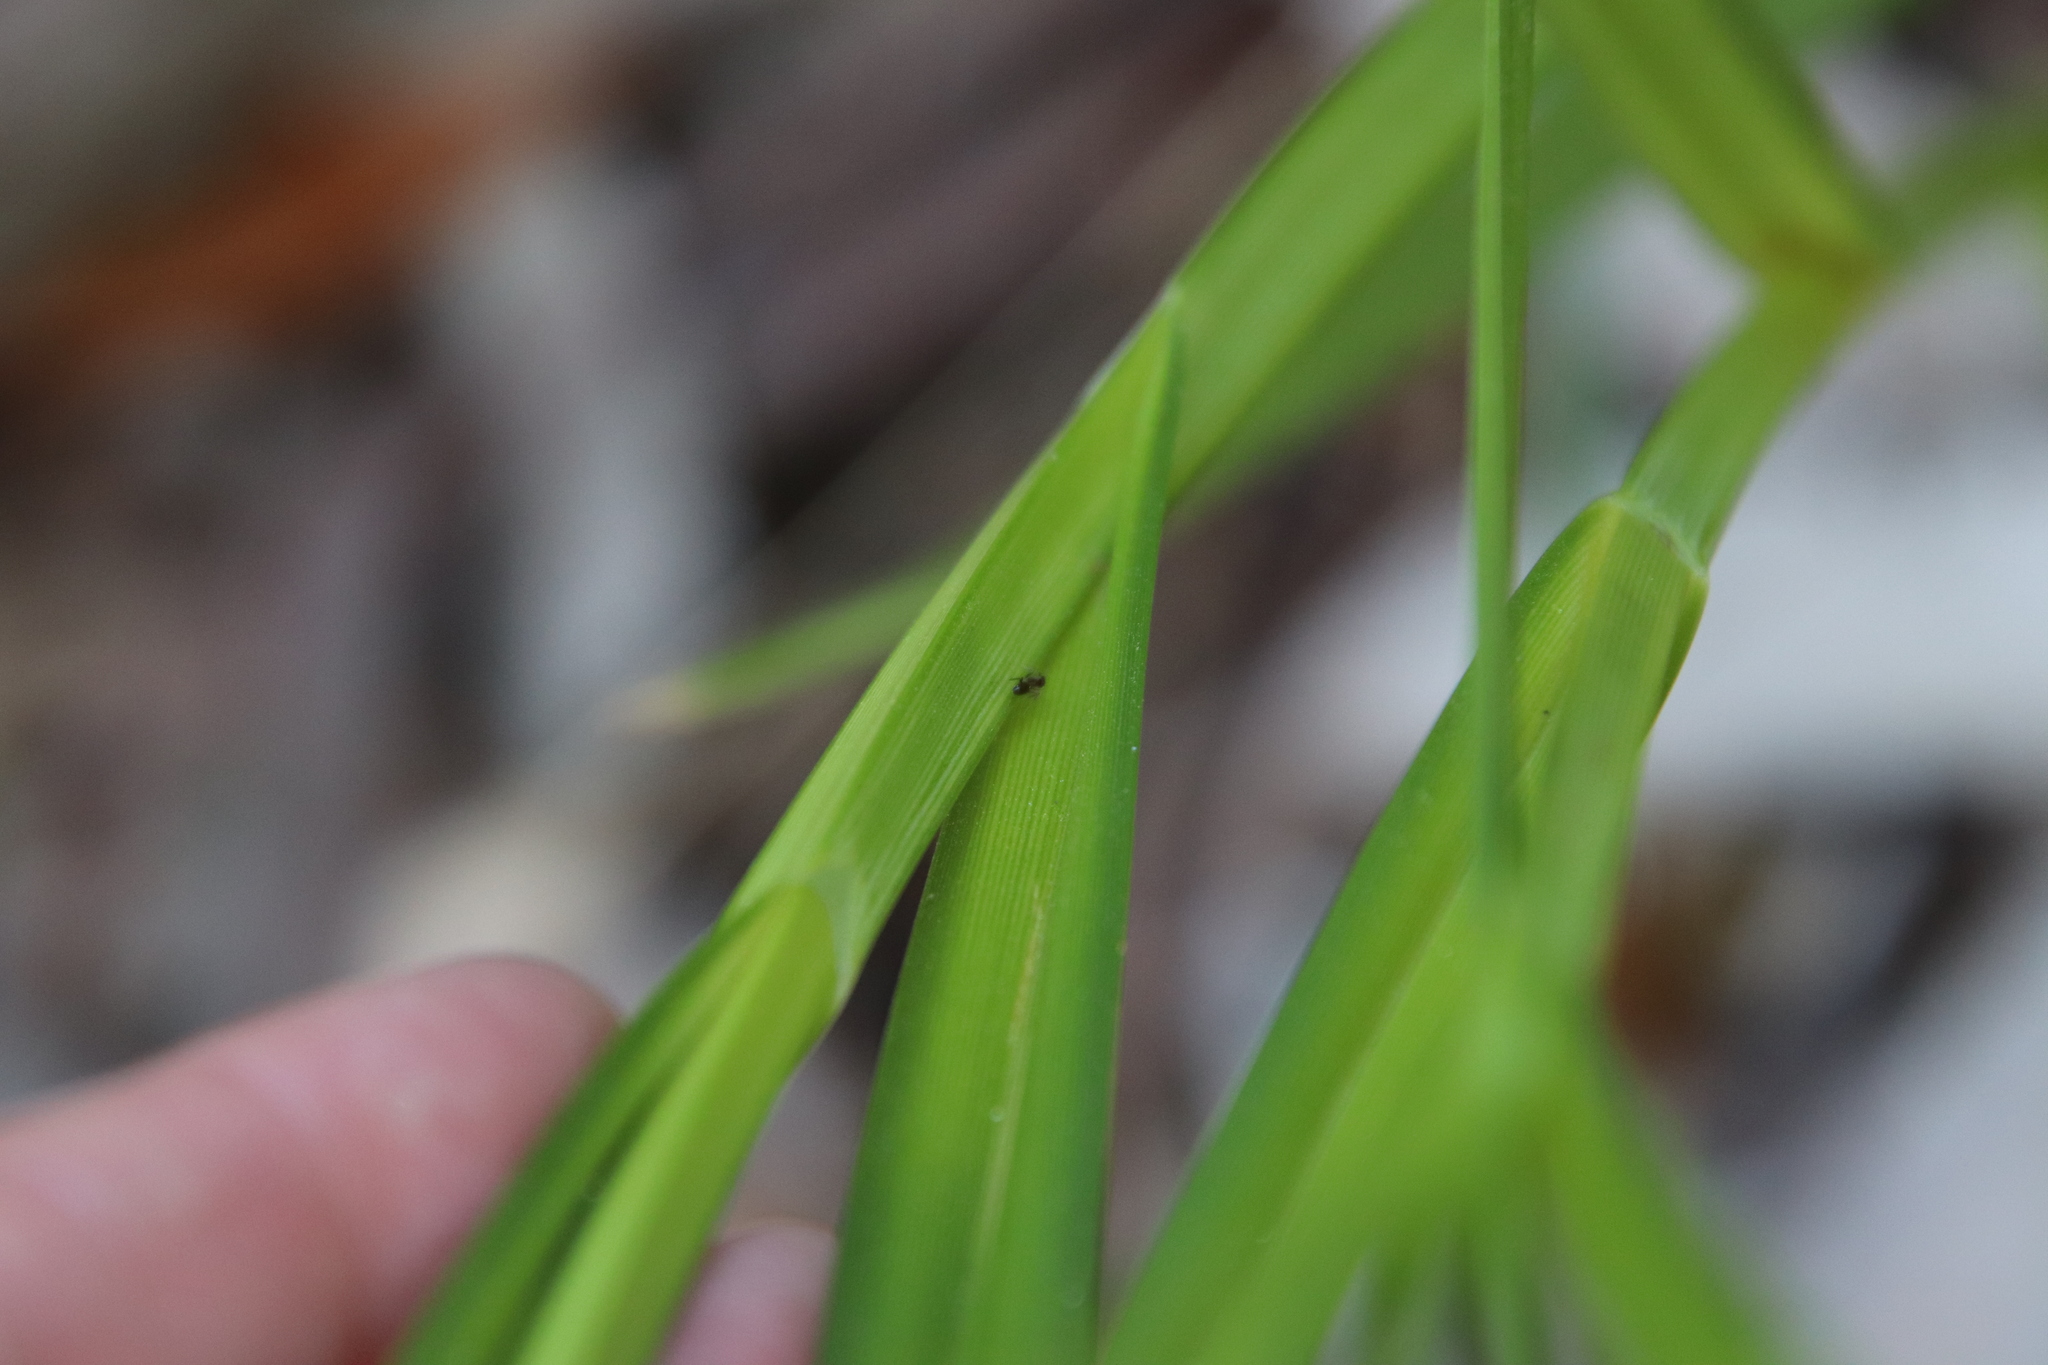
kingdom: Plantae
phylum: Tracheophyta
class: Liliopsida
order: Poales
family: Cyperaceae
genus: Bolboschoenus
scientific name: Bolboschoenus maritimus
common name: Sea club-rush
